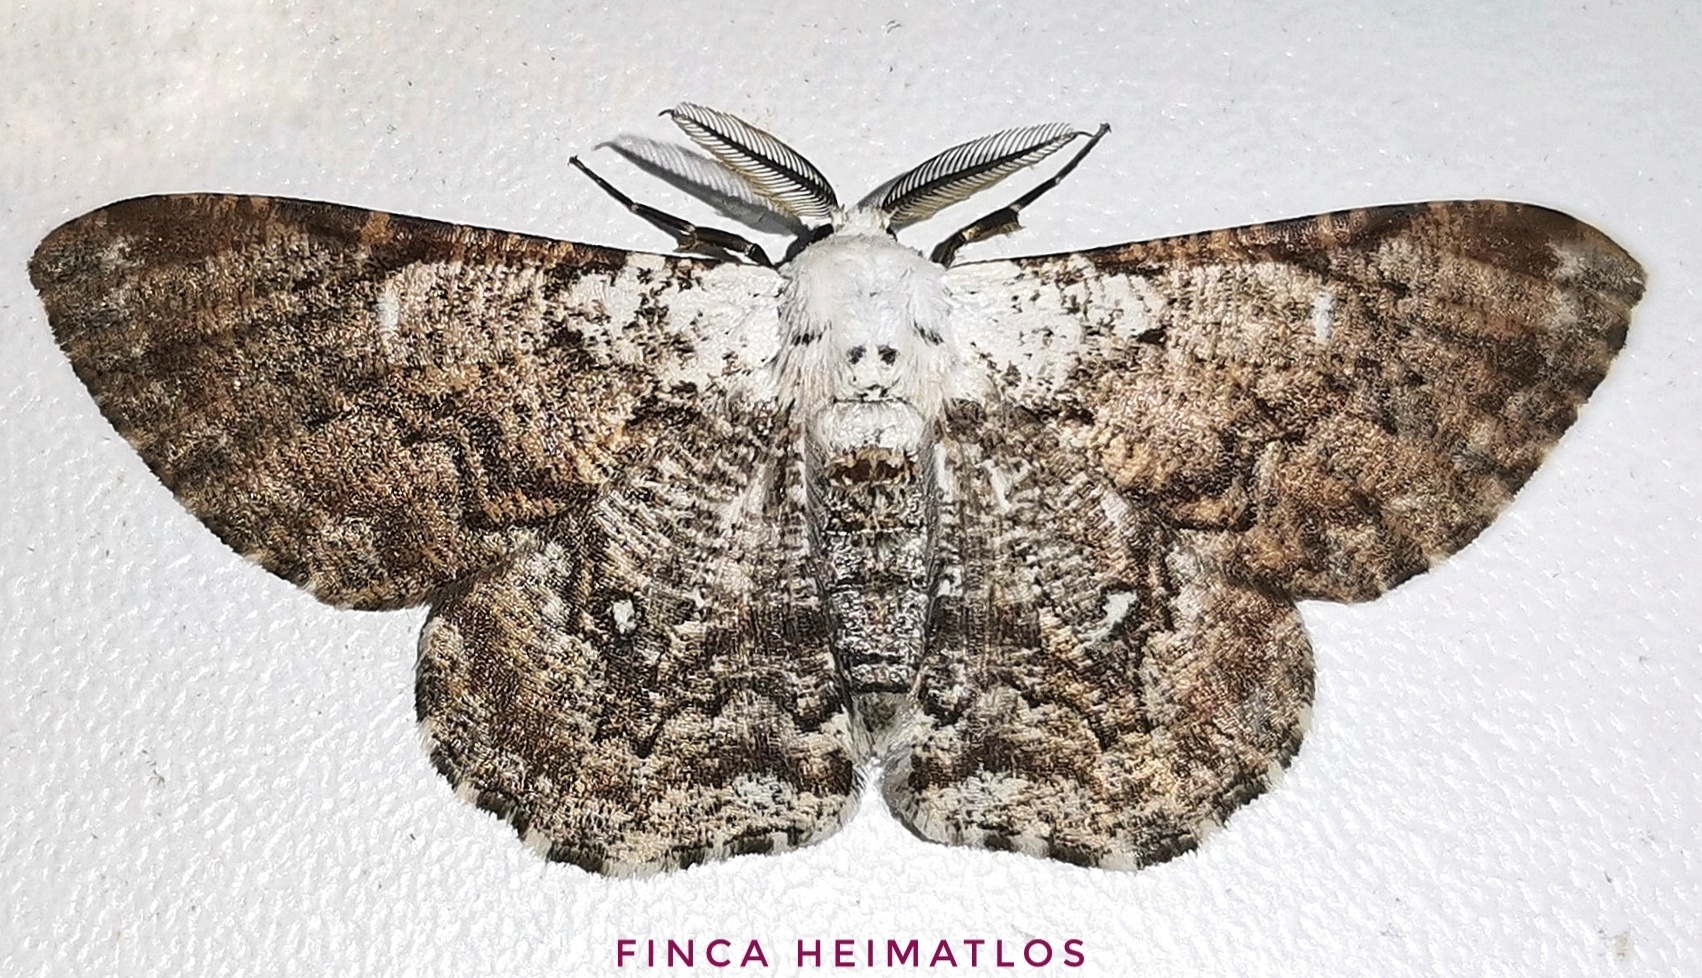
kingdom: Animalia
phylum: Arthropoda
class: Insecta
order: Lepidoptera
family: Geometridae
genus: Thyrinteina
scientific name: Thyrinteina arnobia
